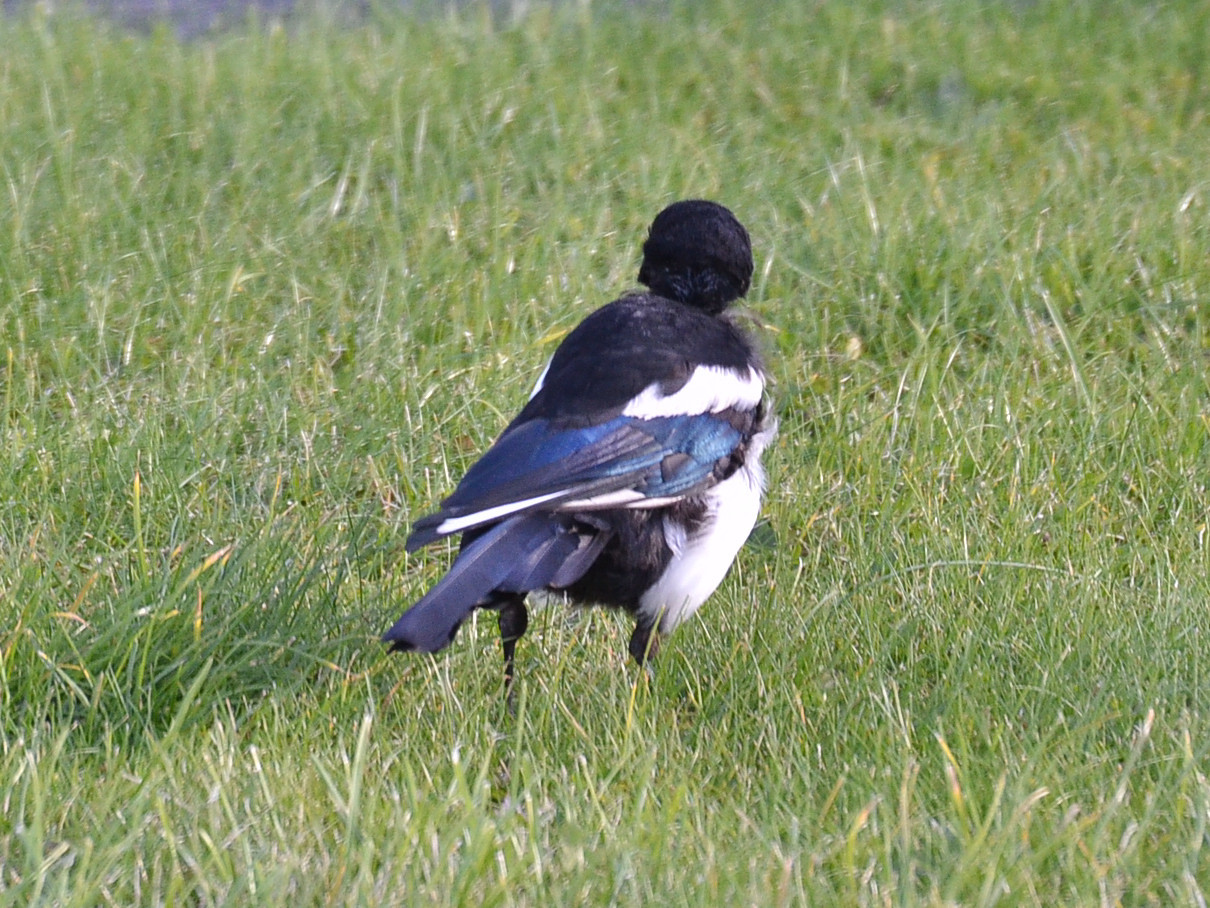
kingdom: Animalia
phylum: Chordata
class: Aves
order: Passeriformes
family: Corvidae
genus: Pica
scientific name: Pica pica
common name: Eurasian magpie
